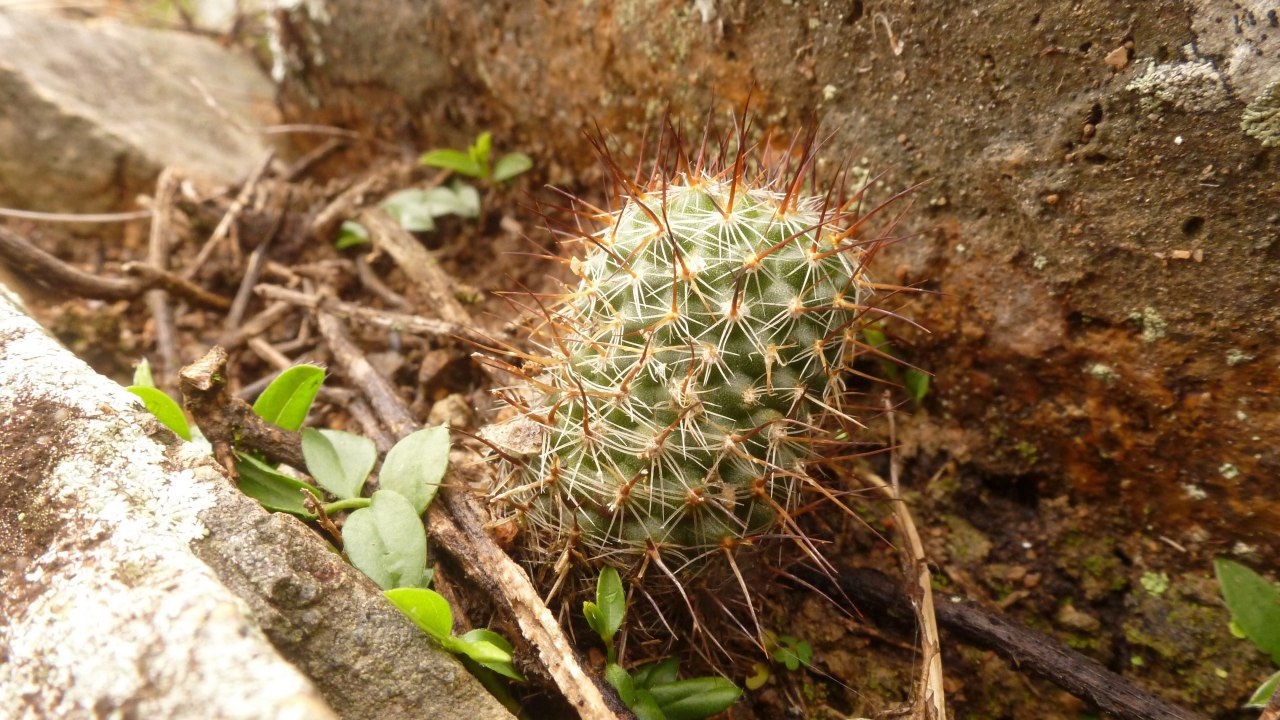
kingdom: Plantae
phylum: Tracheophyta
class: Magnoliopsida
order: Caryophyllales
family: Cactaceae
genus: Frailea
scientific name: Frailea gracillima
